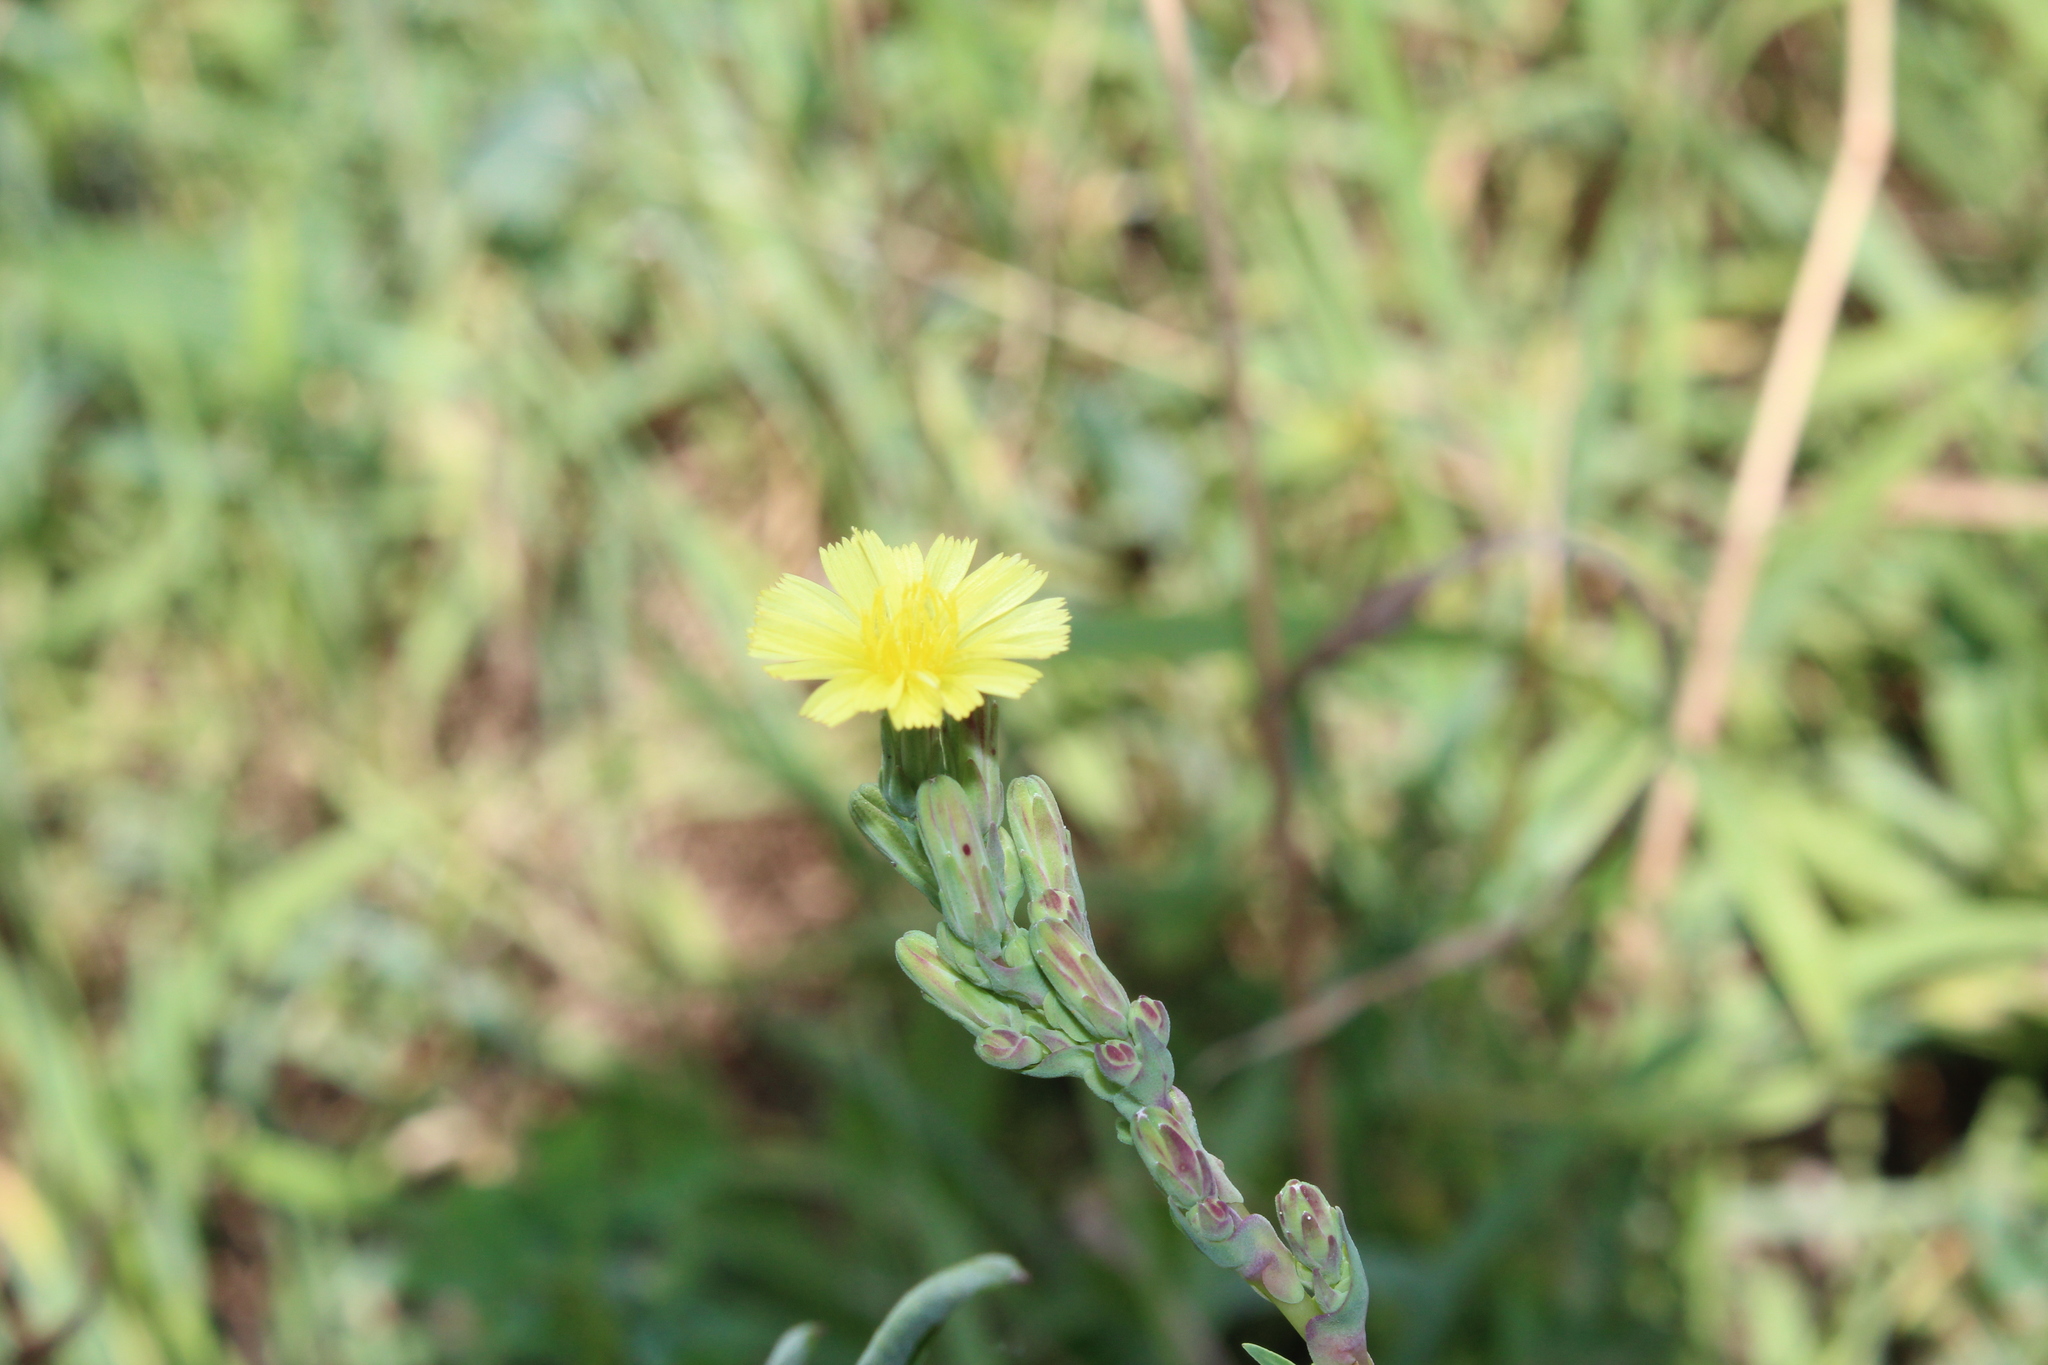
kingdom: Plantae
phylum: Tracheophyta
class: Magnoliopsida
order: Asterales
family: Asteraceae
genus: Lactuca
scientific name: Lactuca serriola
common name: Prickly lettuce
